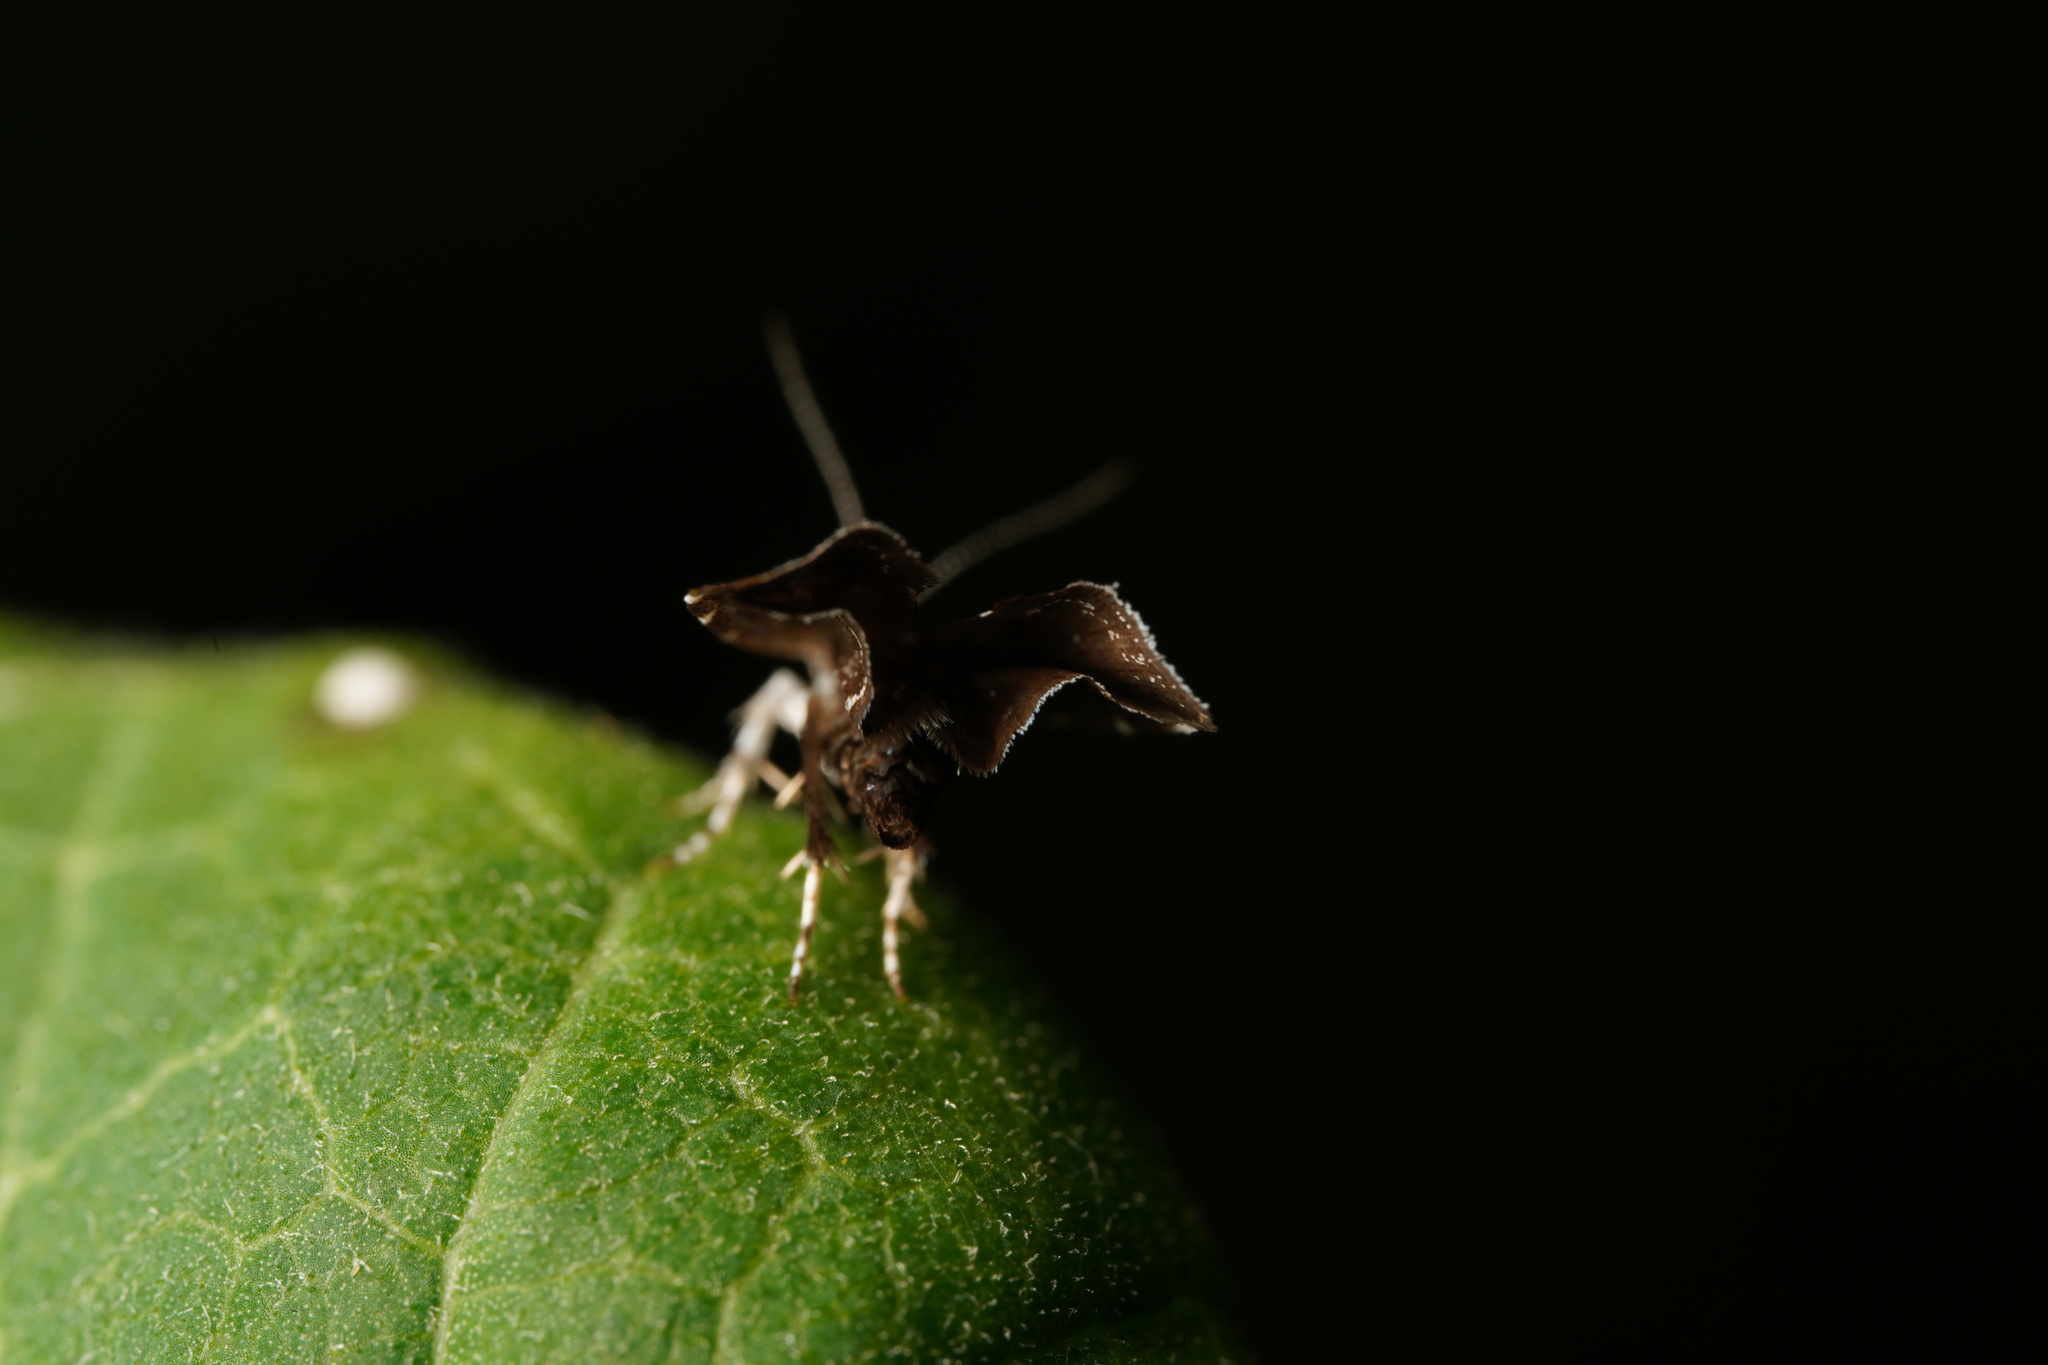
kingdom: Animalia
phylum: Arthropoda
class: Insecta
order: Lepidoptera
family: Choreutidae
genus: Prochoreutis
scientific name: Prochoreutis inflatella
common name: Skullcap skeletonizer moth
